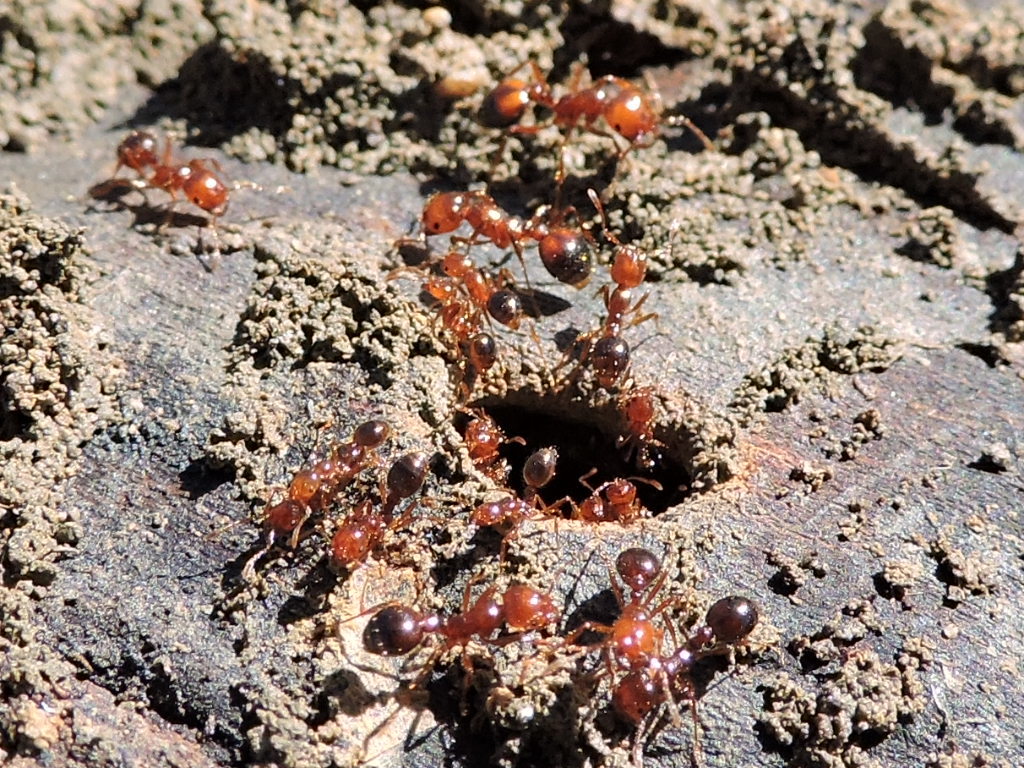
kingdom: Animalia
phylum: Arthropoda
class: Insecta
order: Hymenoptera
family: Formicidae
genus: Solenopsis
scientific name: Solenopsis invicta
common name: Red imported fire ant
